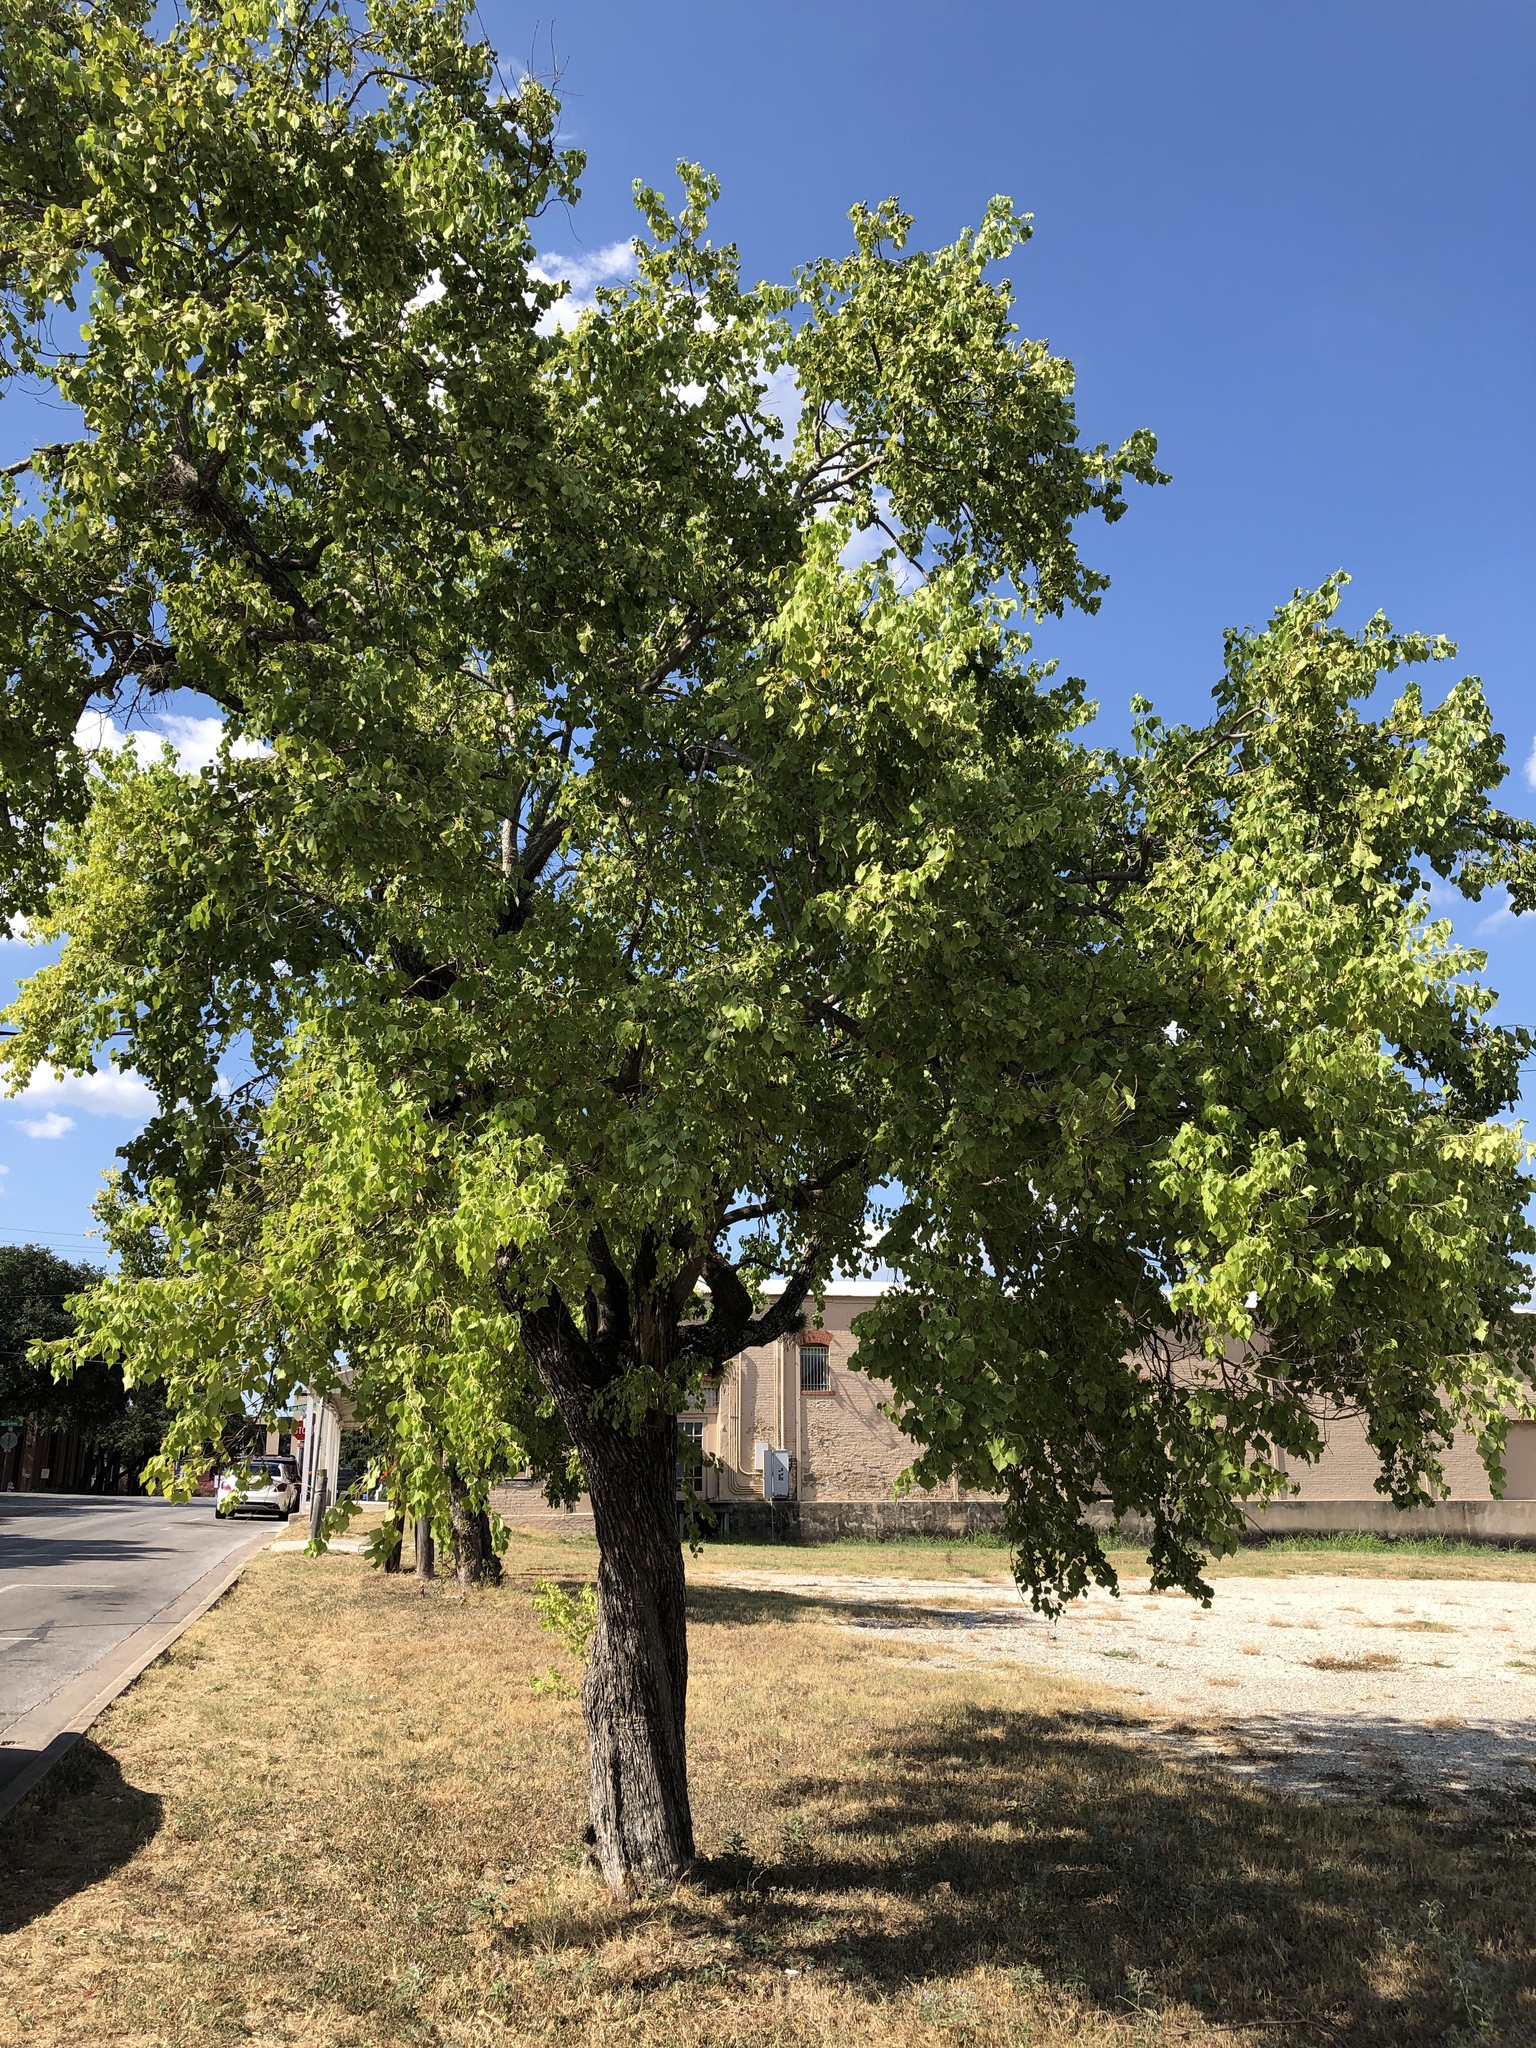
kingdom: Plantae
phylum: Tracheophyta
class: Magnoliopsida
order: Malpighiales
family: Euphorbiaceae
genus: Triadica
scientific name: Triadica sebifera
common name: Chinese tallow
